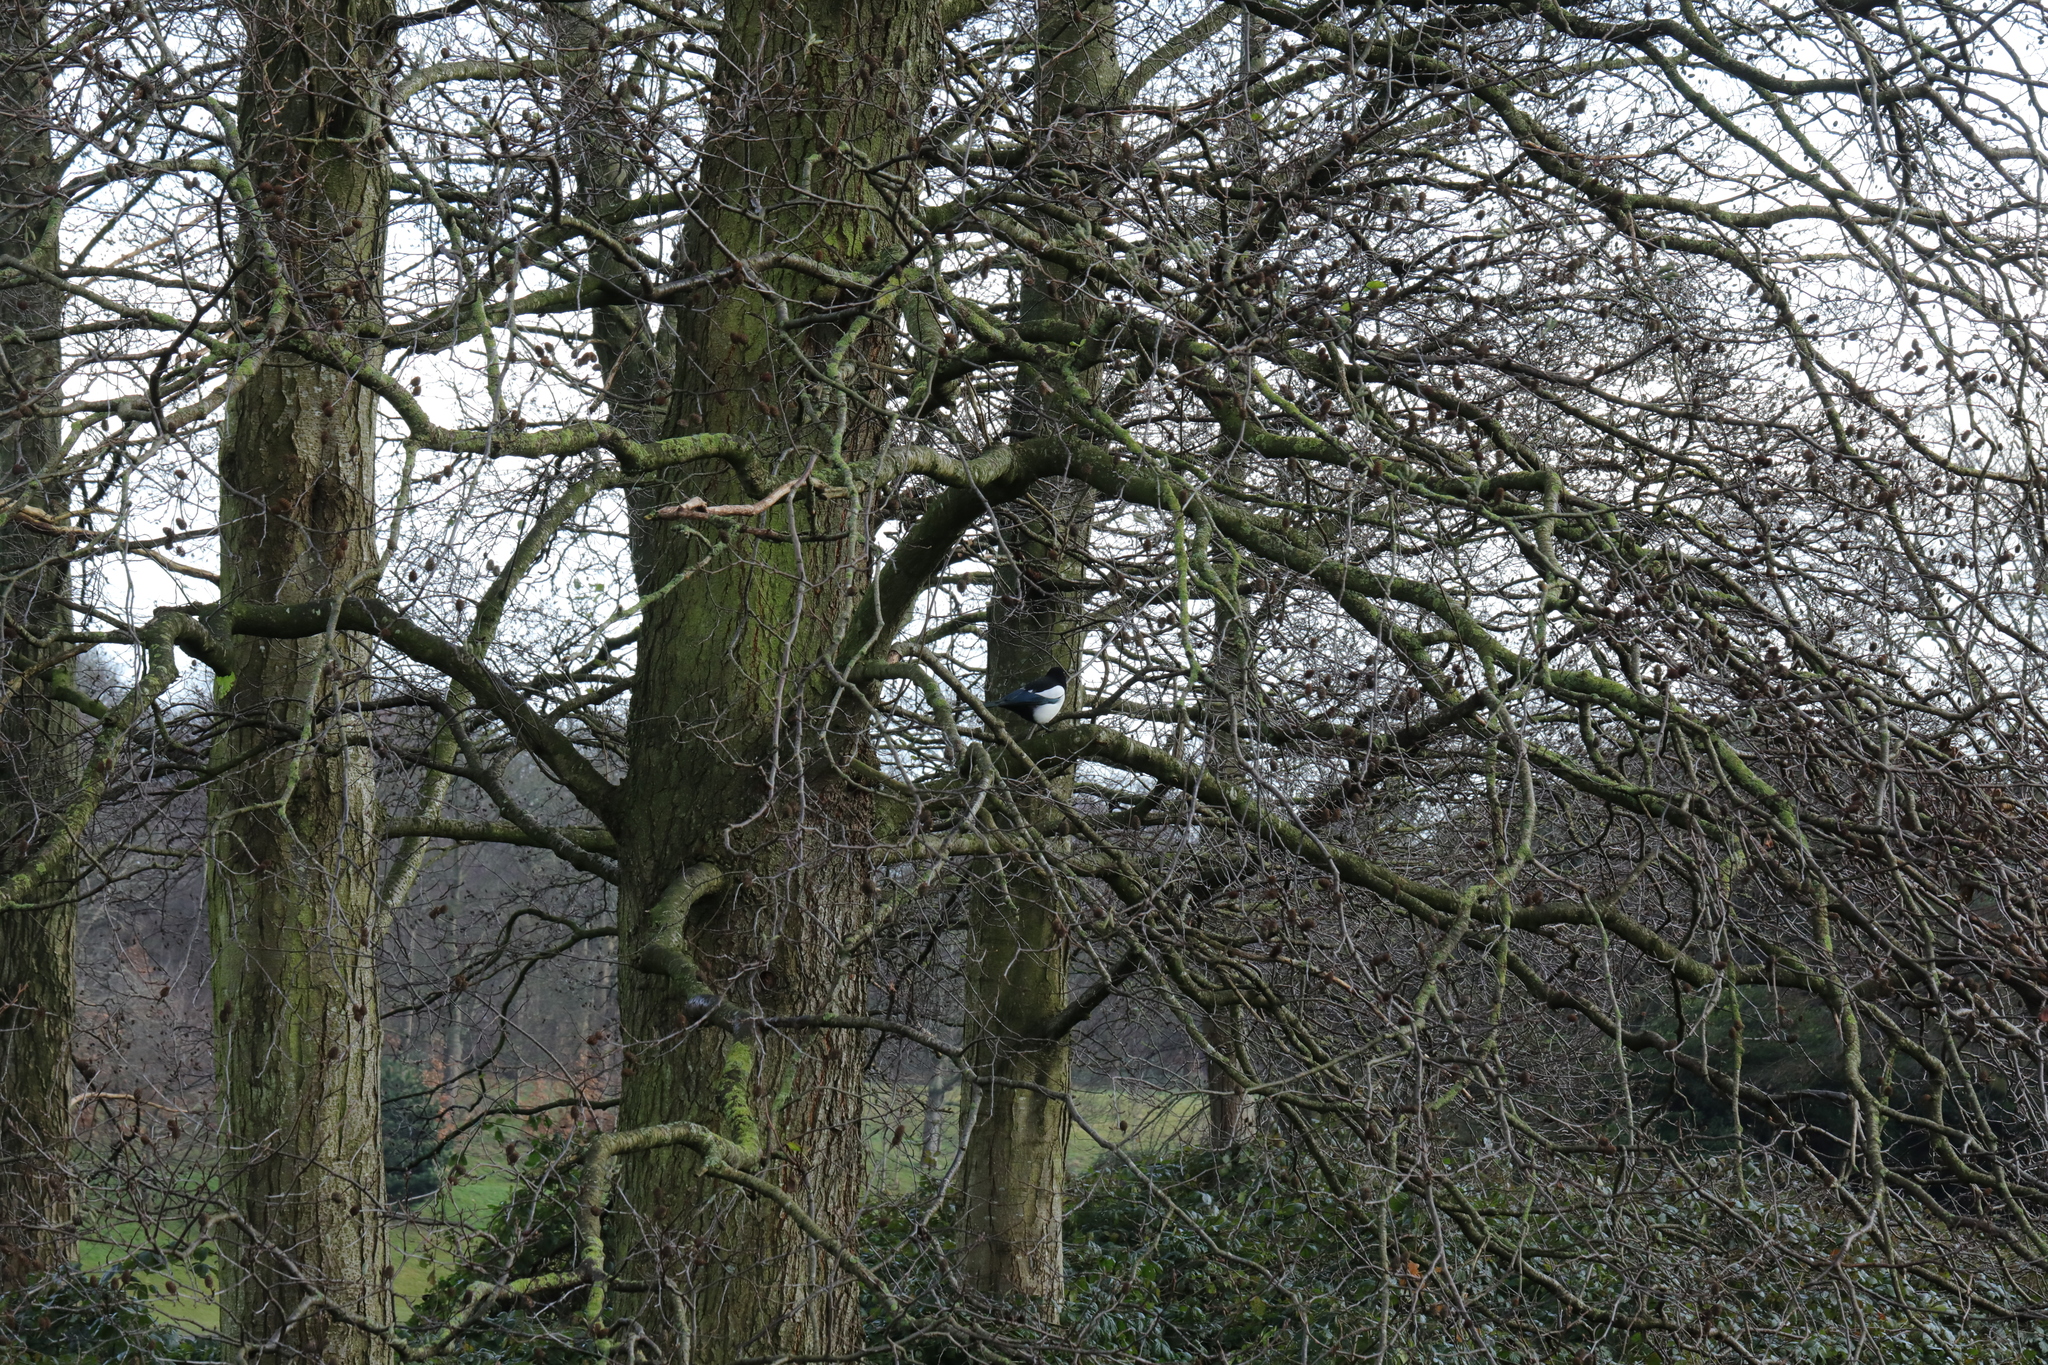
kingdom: Animalia
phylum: Chordata
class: Aves
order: Passeriformes
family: Corvidae
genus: Pica
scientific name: Pica pica
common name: Eurasian magpie
